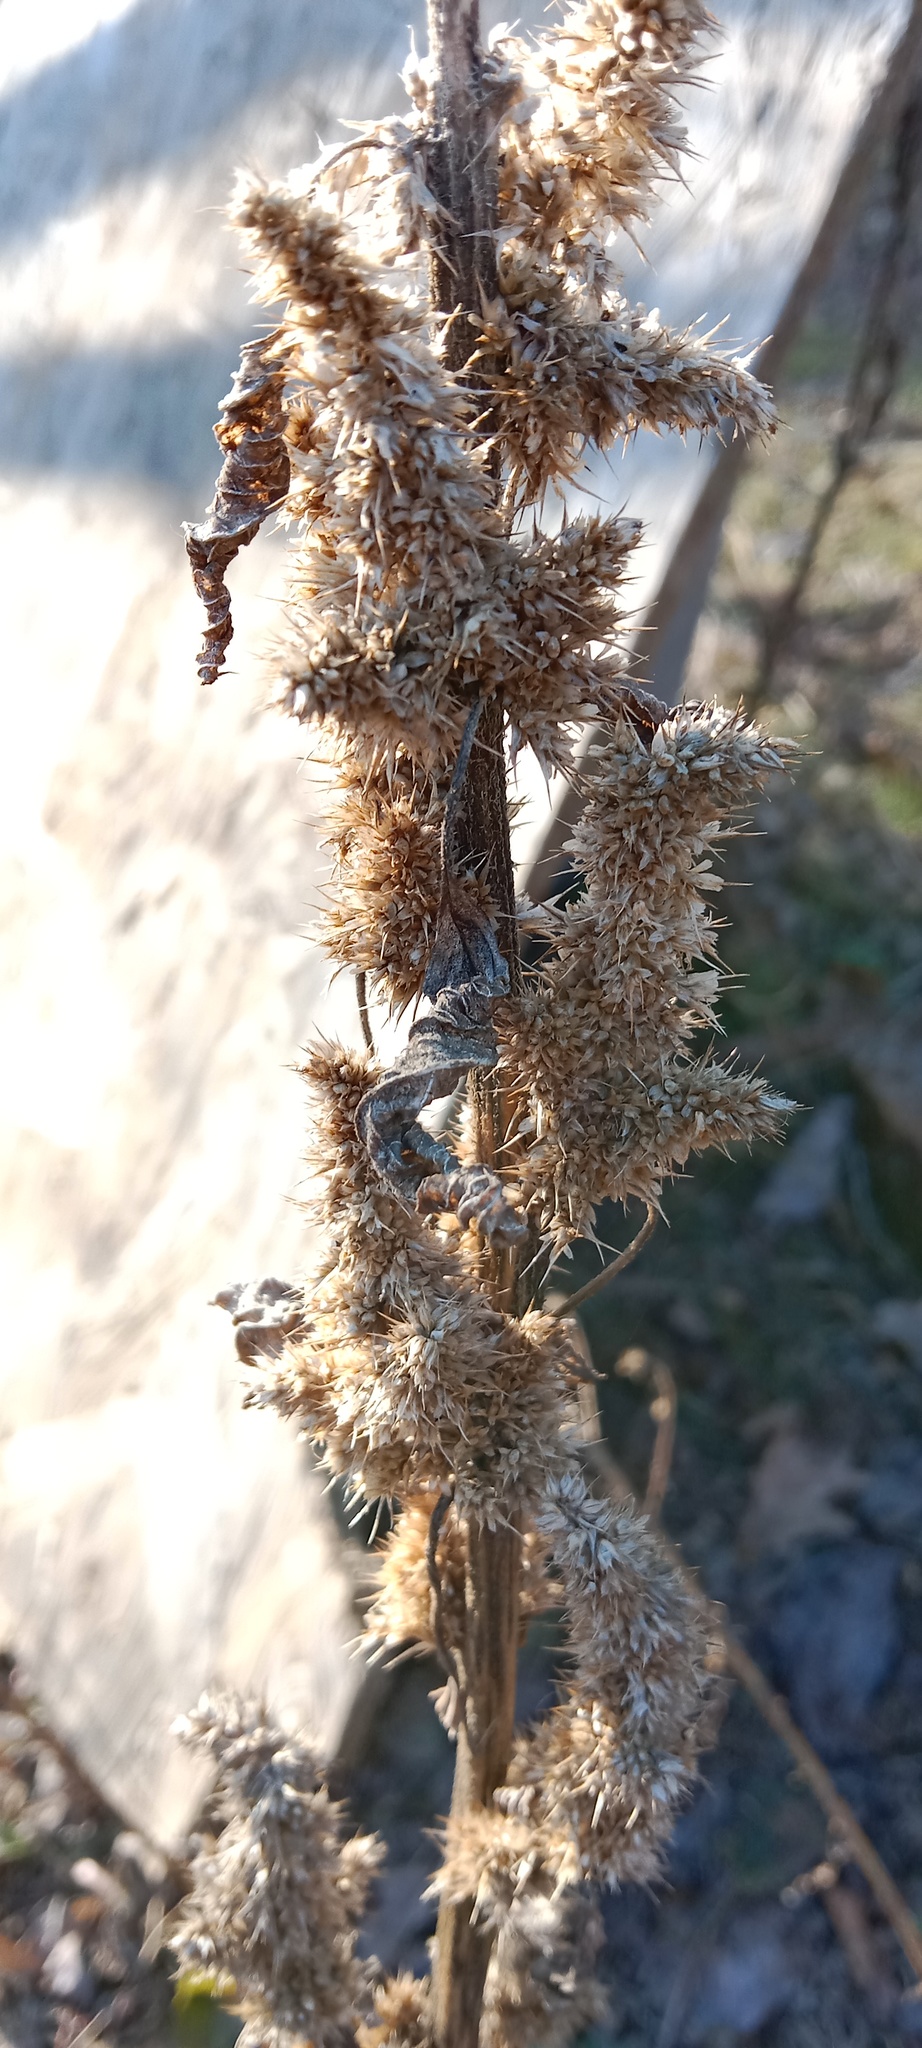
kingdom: Plantae
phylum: Tracheophyta
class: Magnoliopsida
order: Caryophyllales
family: Amaranthaceae
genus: Amaranthus
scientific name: Amaranthus retroflexus
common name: Redroot amaranth
